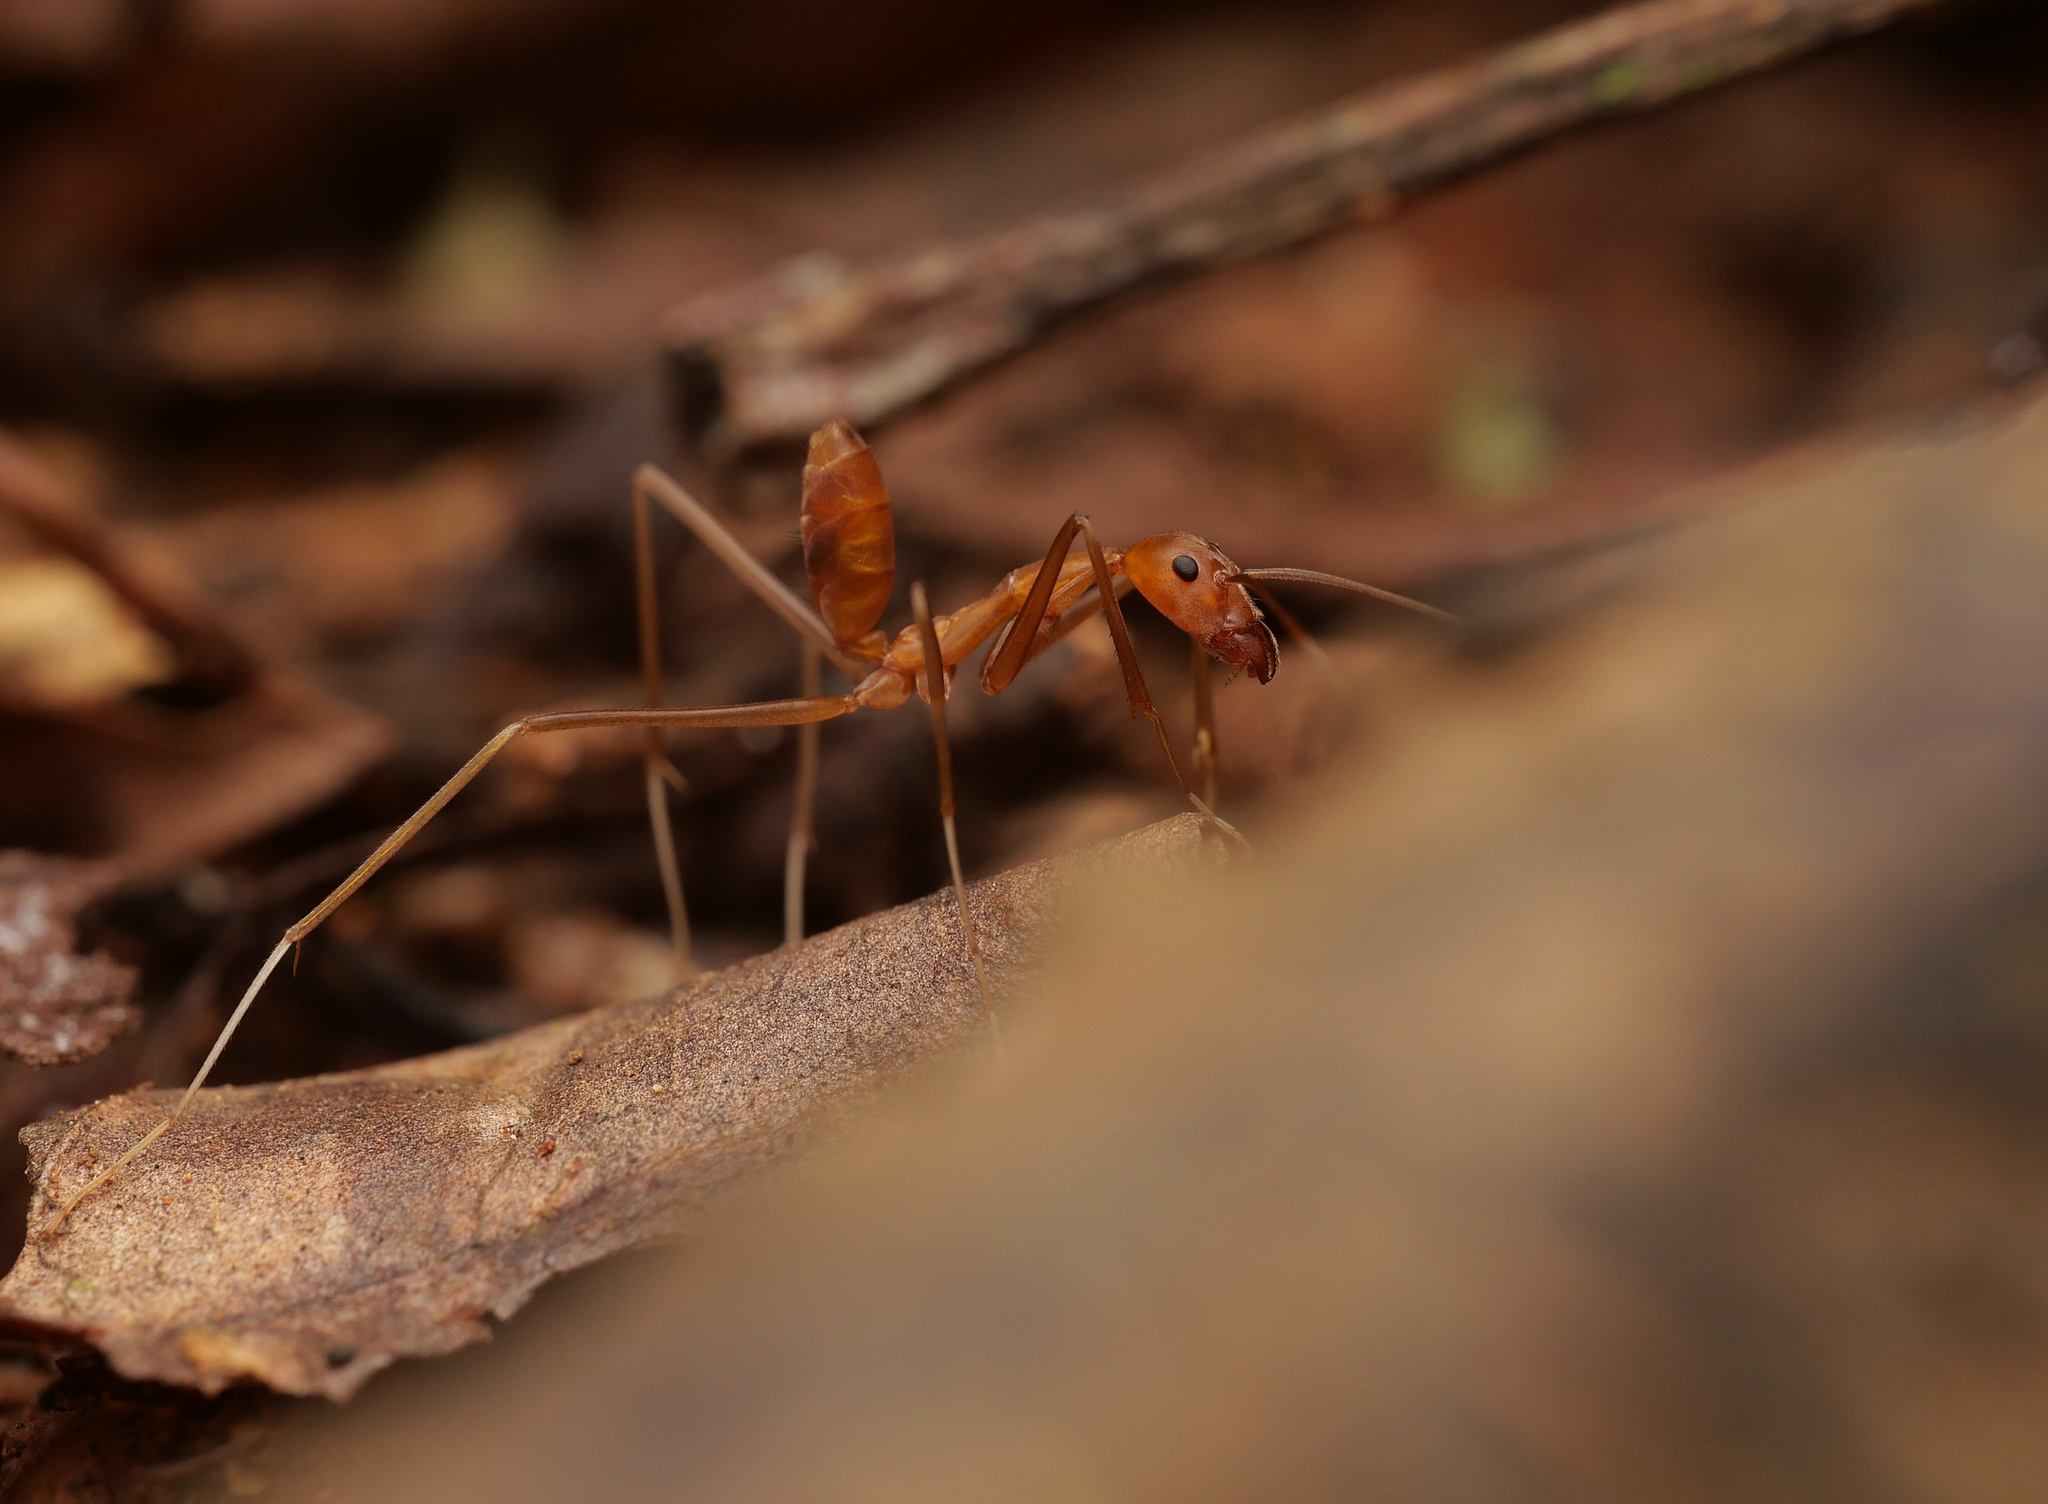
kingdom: Animalia
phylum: Arthropoda
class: Insecta
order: Hymenoptera
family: Formicidae
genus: Leptomyrmex
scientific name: Leptomyrmex puberulus
